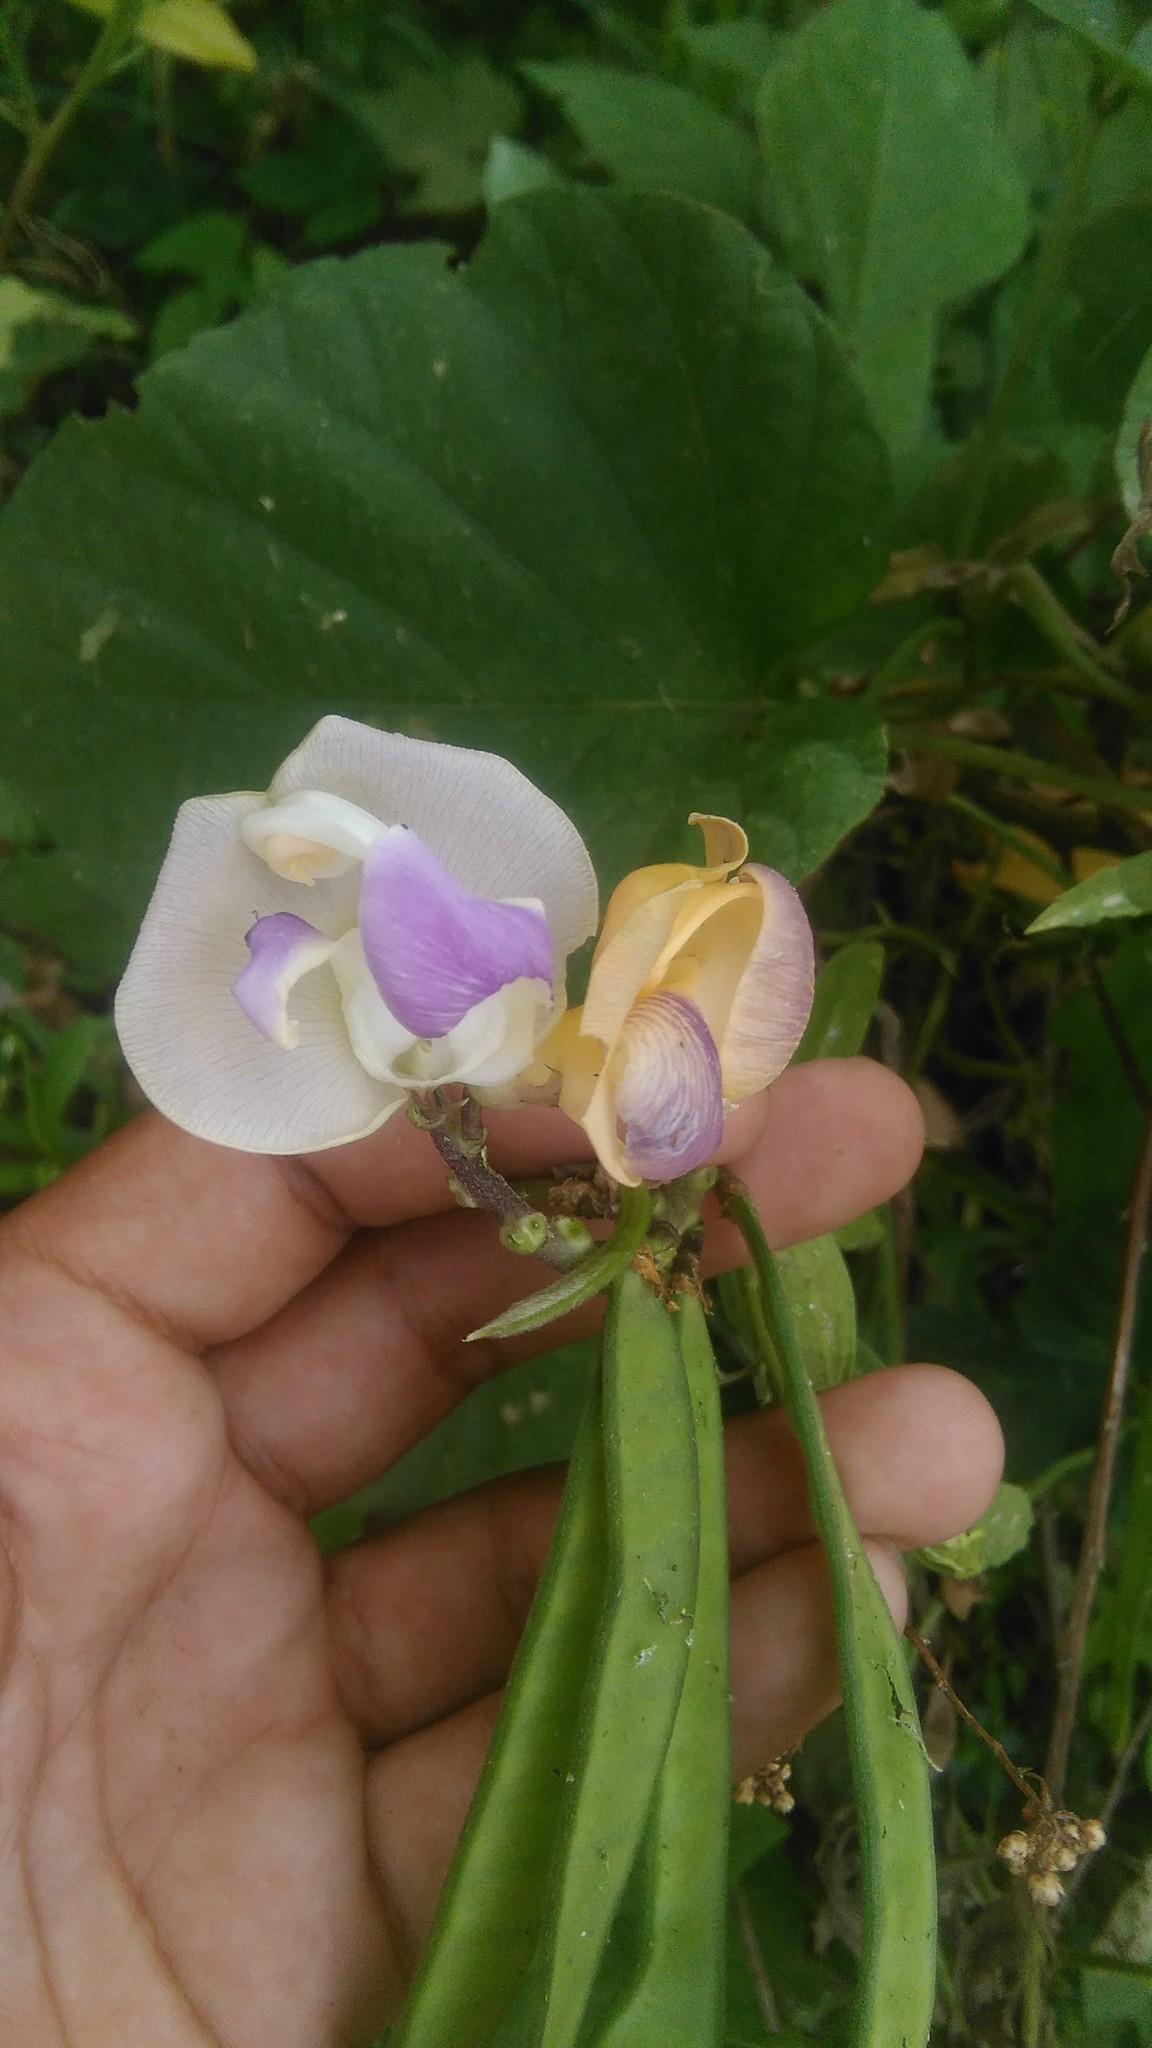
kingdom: Plantae
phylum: Tracheophyta
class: Magnoliopsida
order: Fabales
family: Fabaceae
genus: Leptospron
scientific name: Leptospron adenanthum
